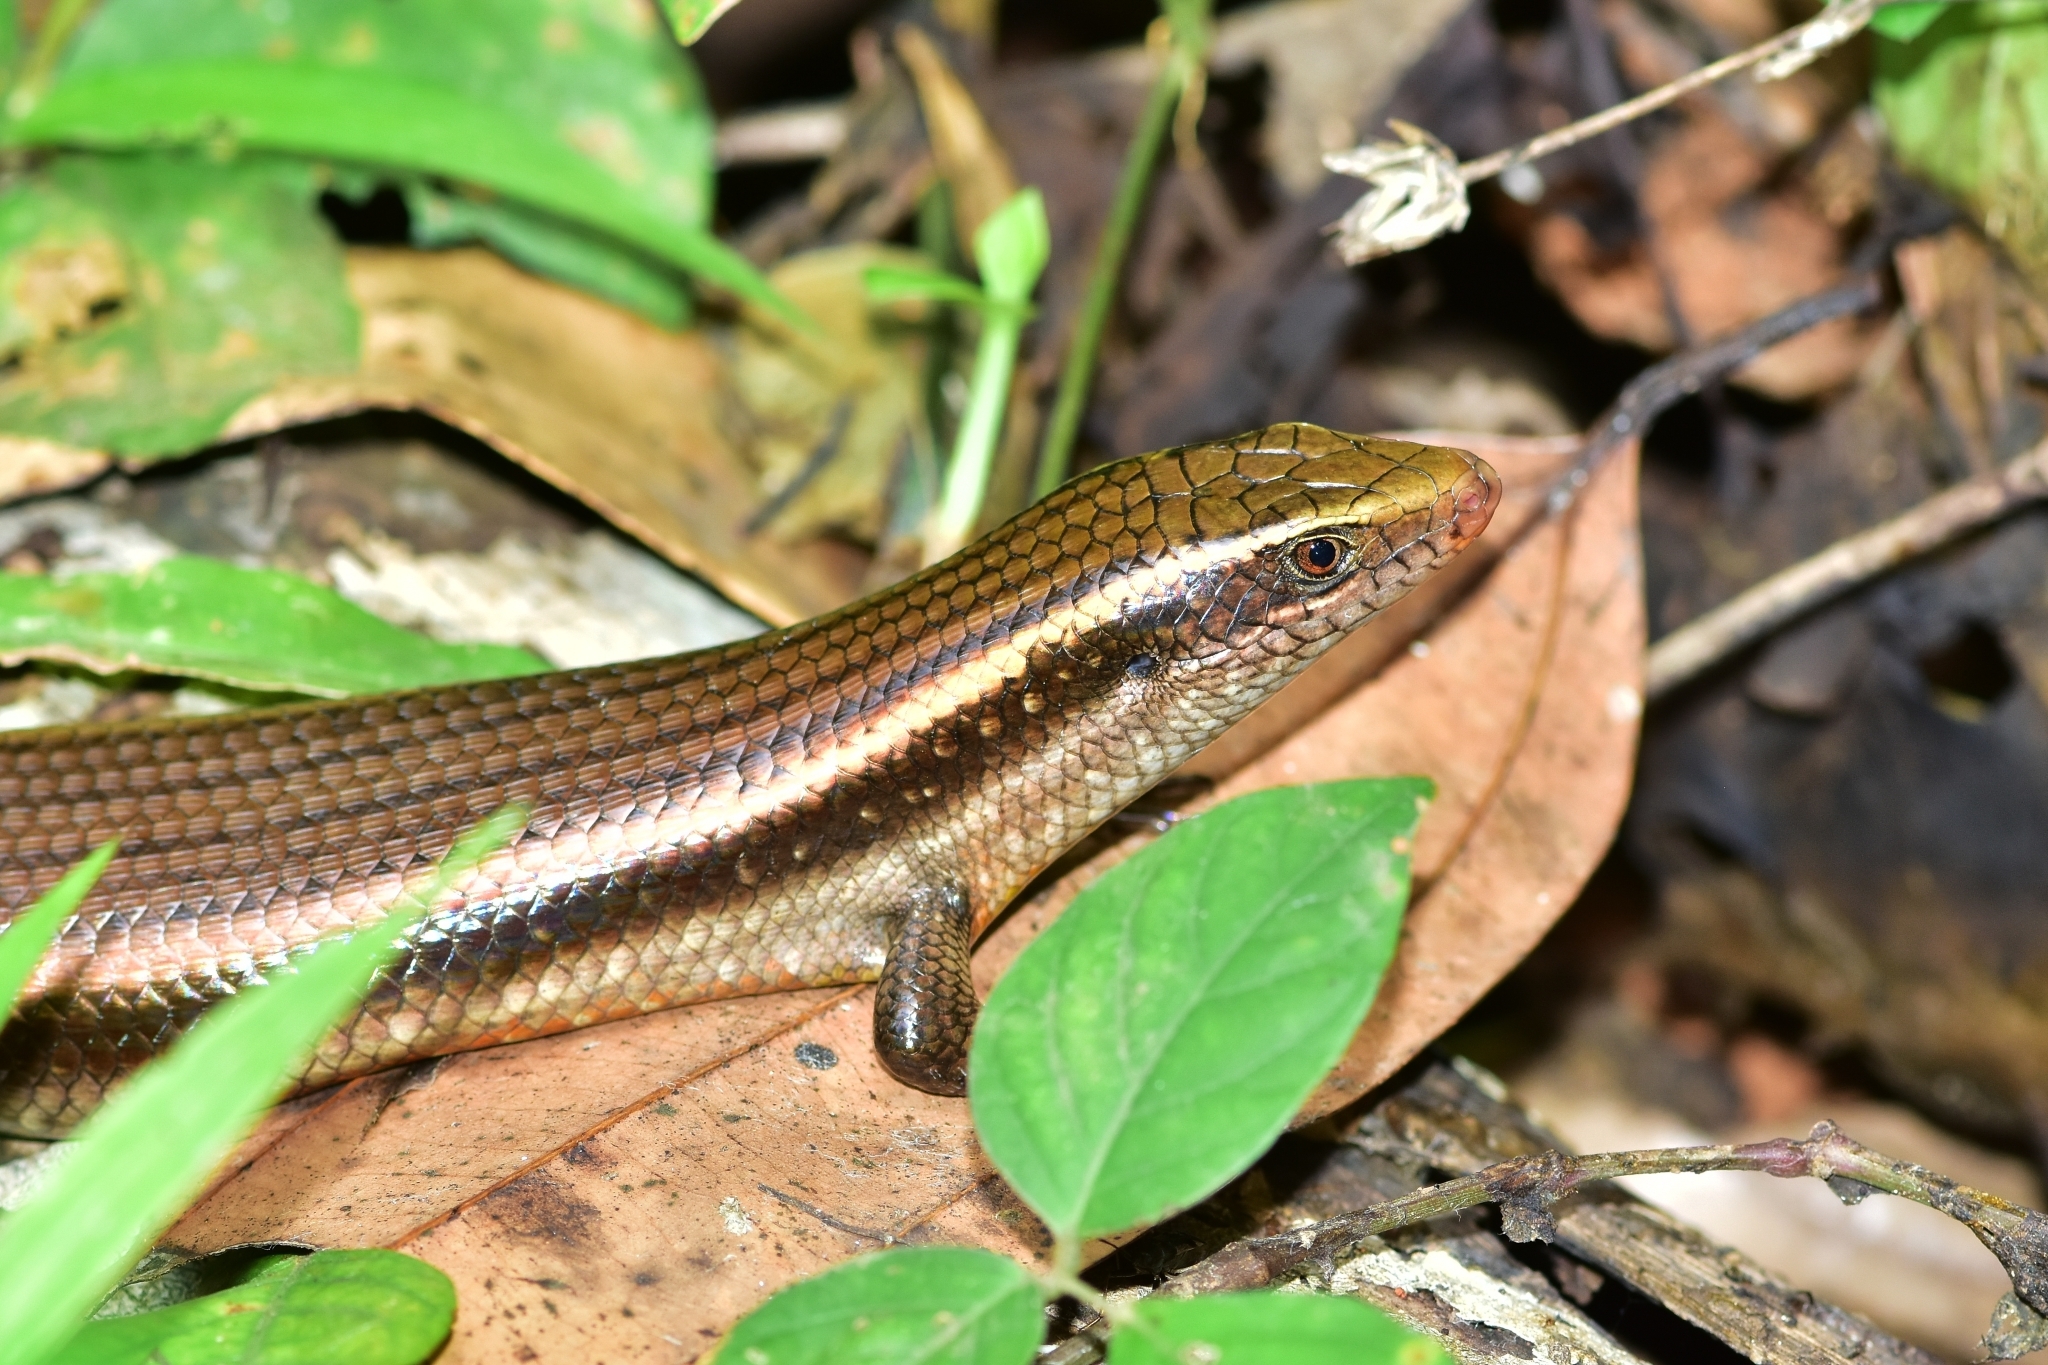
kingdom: Animalia
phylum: Chordata
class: Squamata
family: Scincidae
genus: Eutropis
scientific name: Eutropis carinata
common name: Keeled indian mabuya
